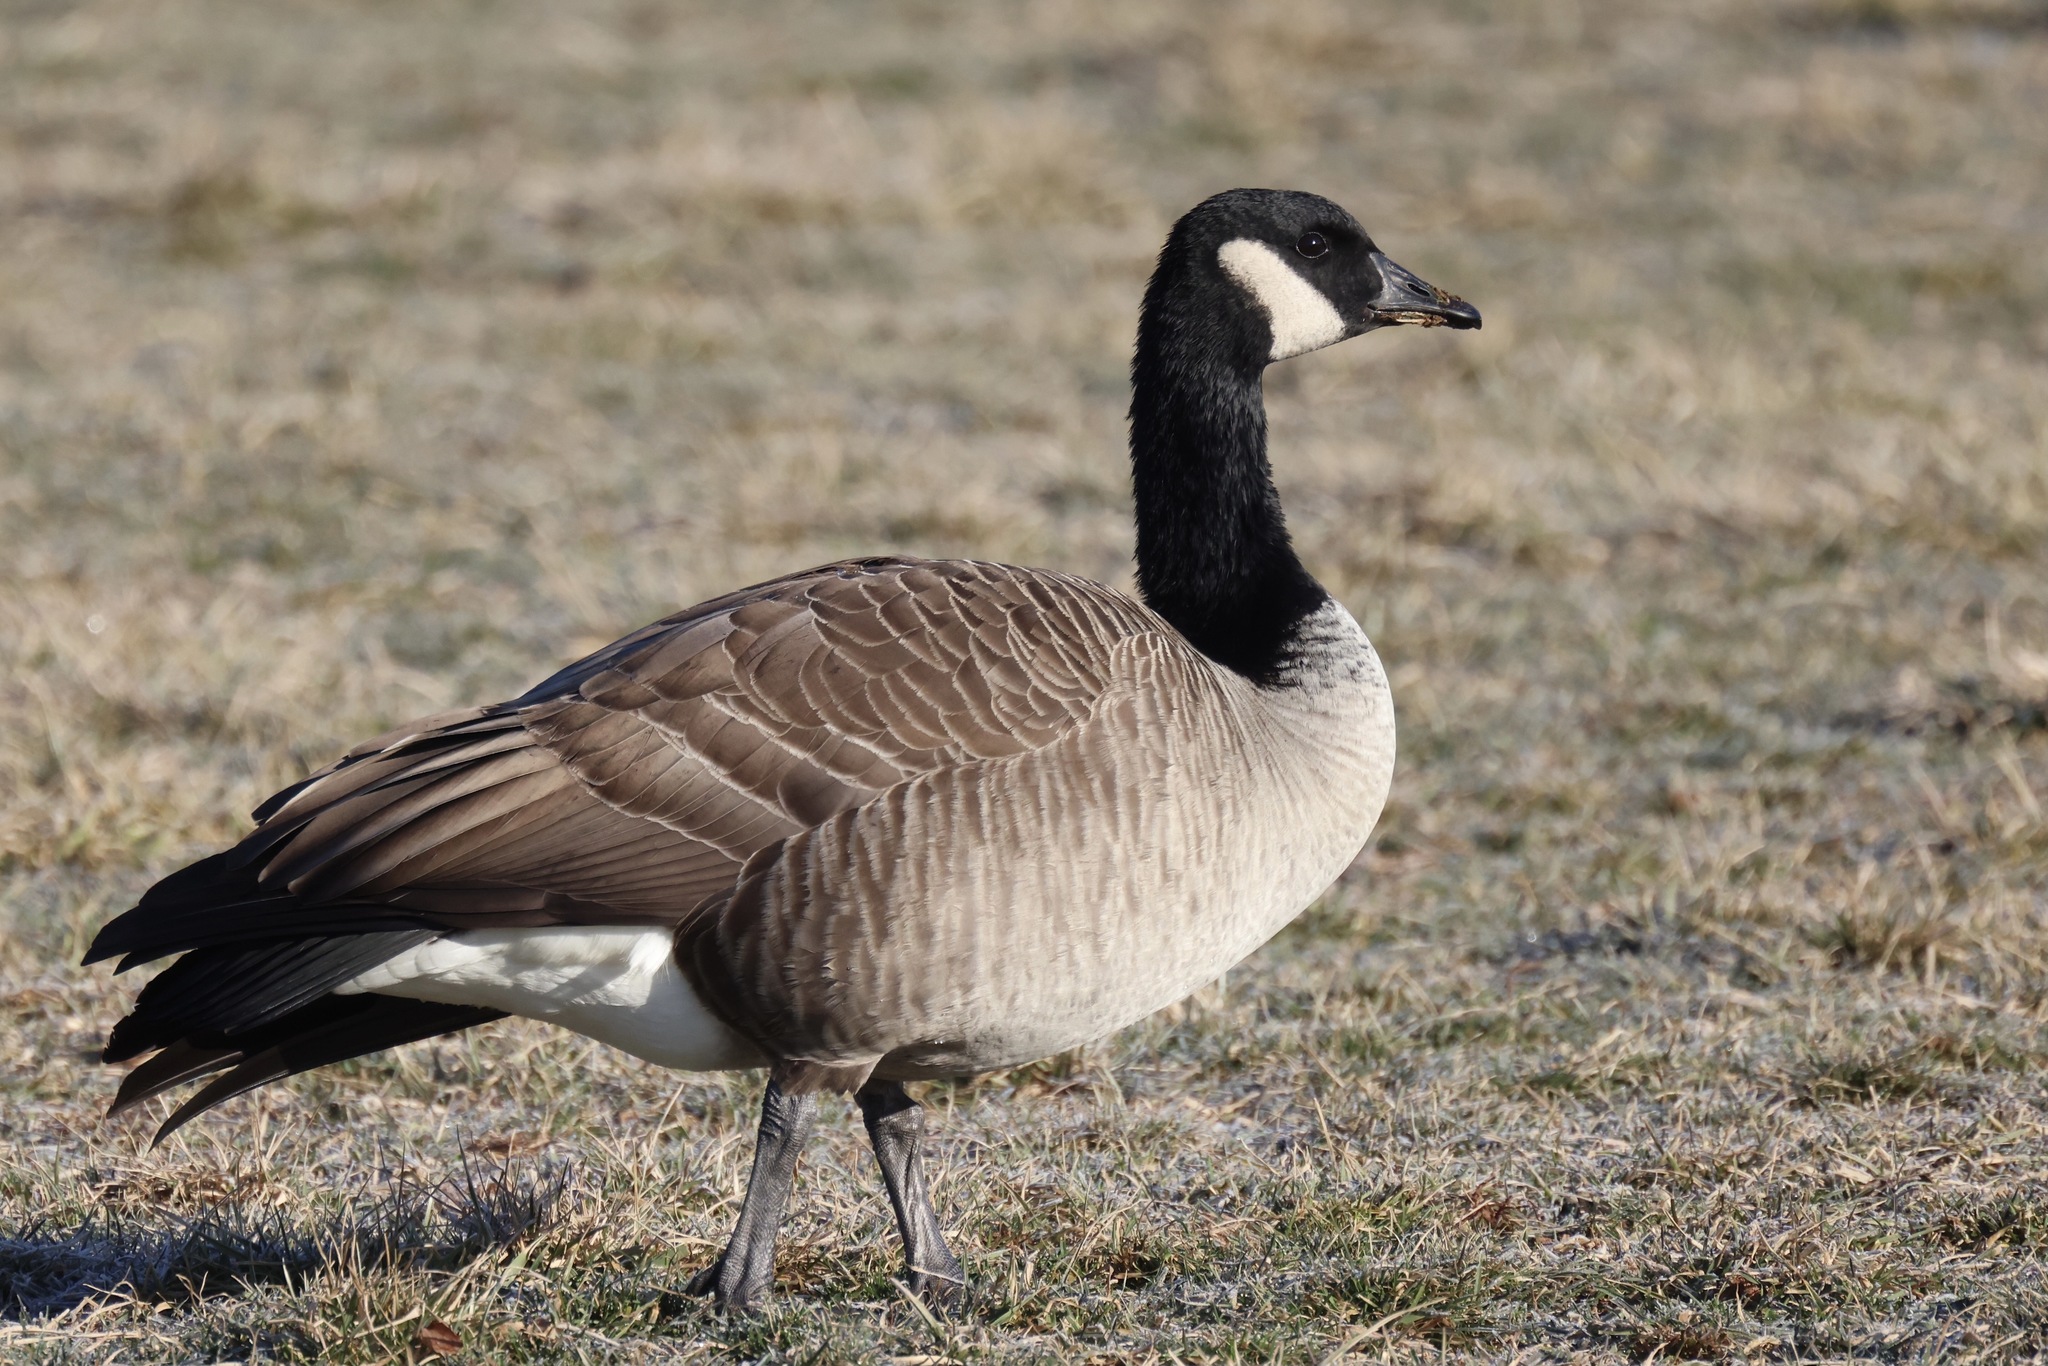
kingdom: Animalia
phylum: Chordata
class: Aves
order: Anseriformes
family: Anatidae
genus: Branta
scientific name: Branta canadensis
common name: Canada goose
